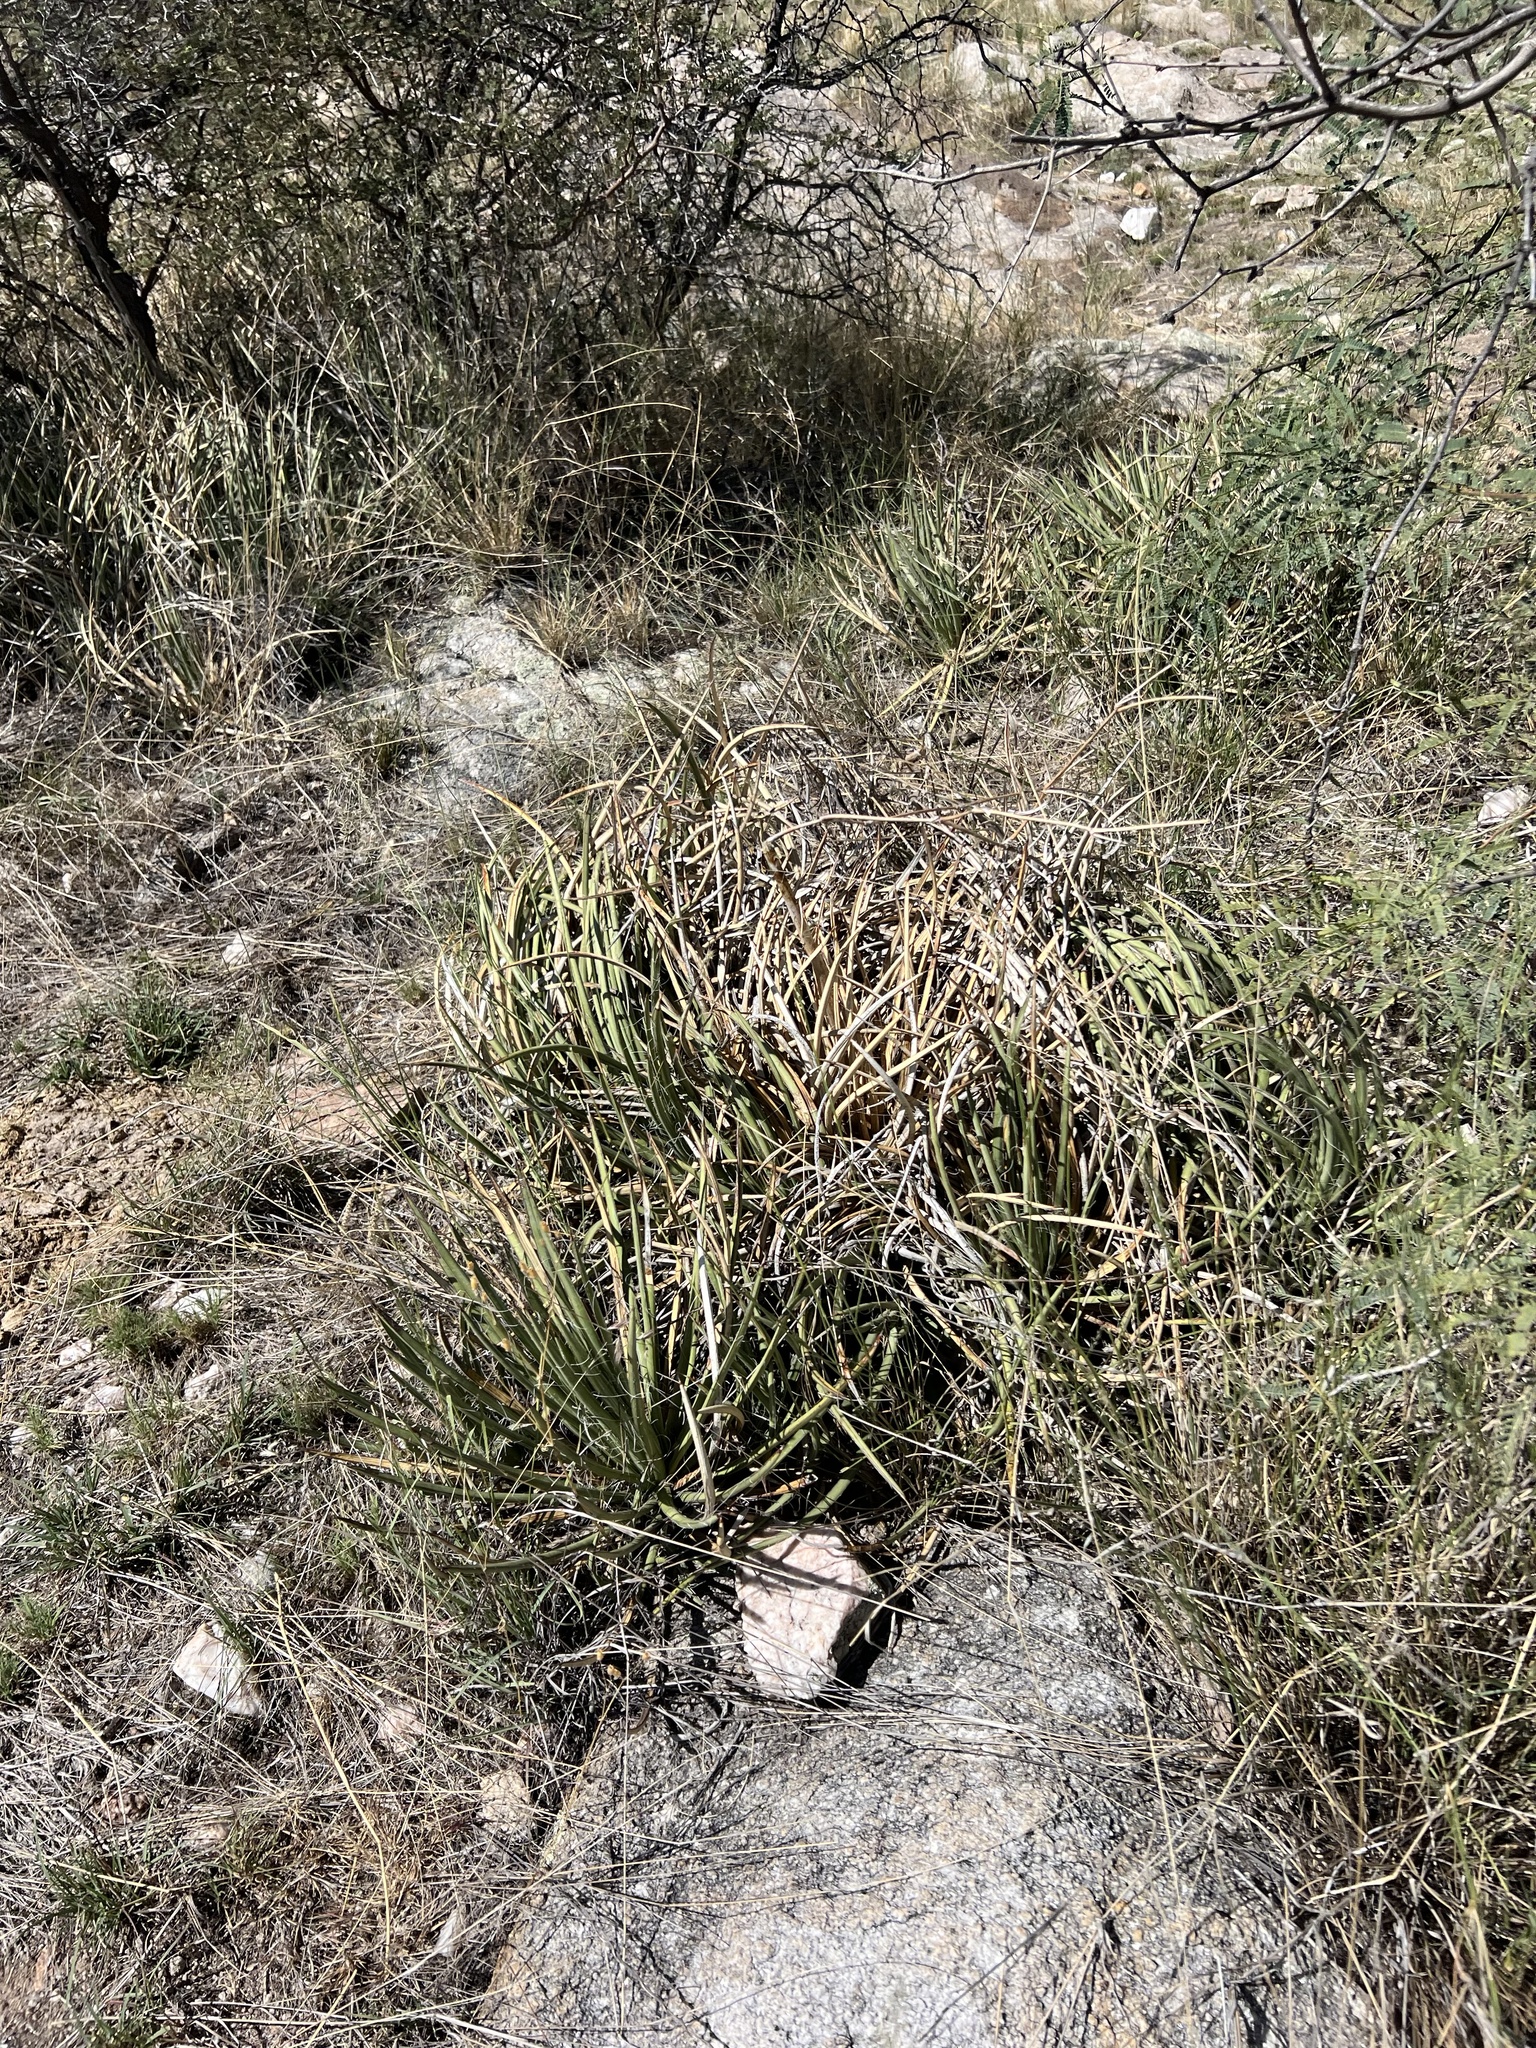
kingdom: Plantae
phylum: Tracheophyta
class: Liliopsida
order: Asparagales
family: Asparagaceae
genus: Agave
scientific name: Agave schottii
